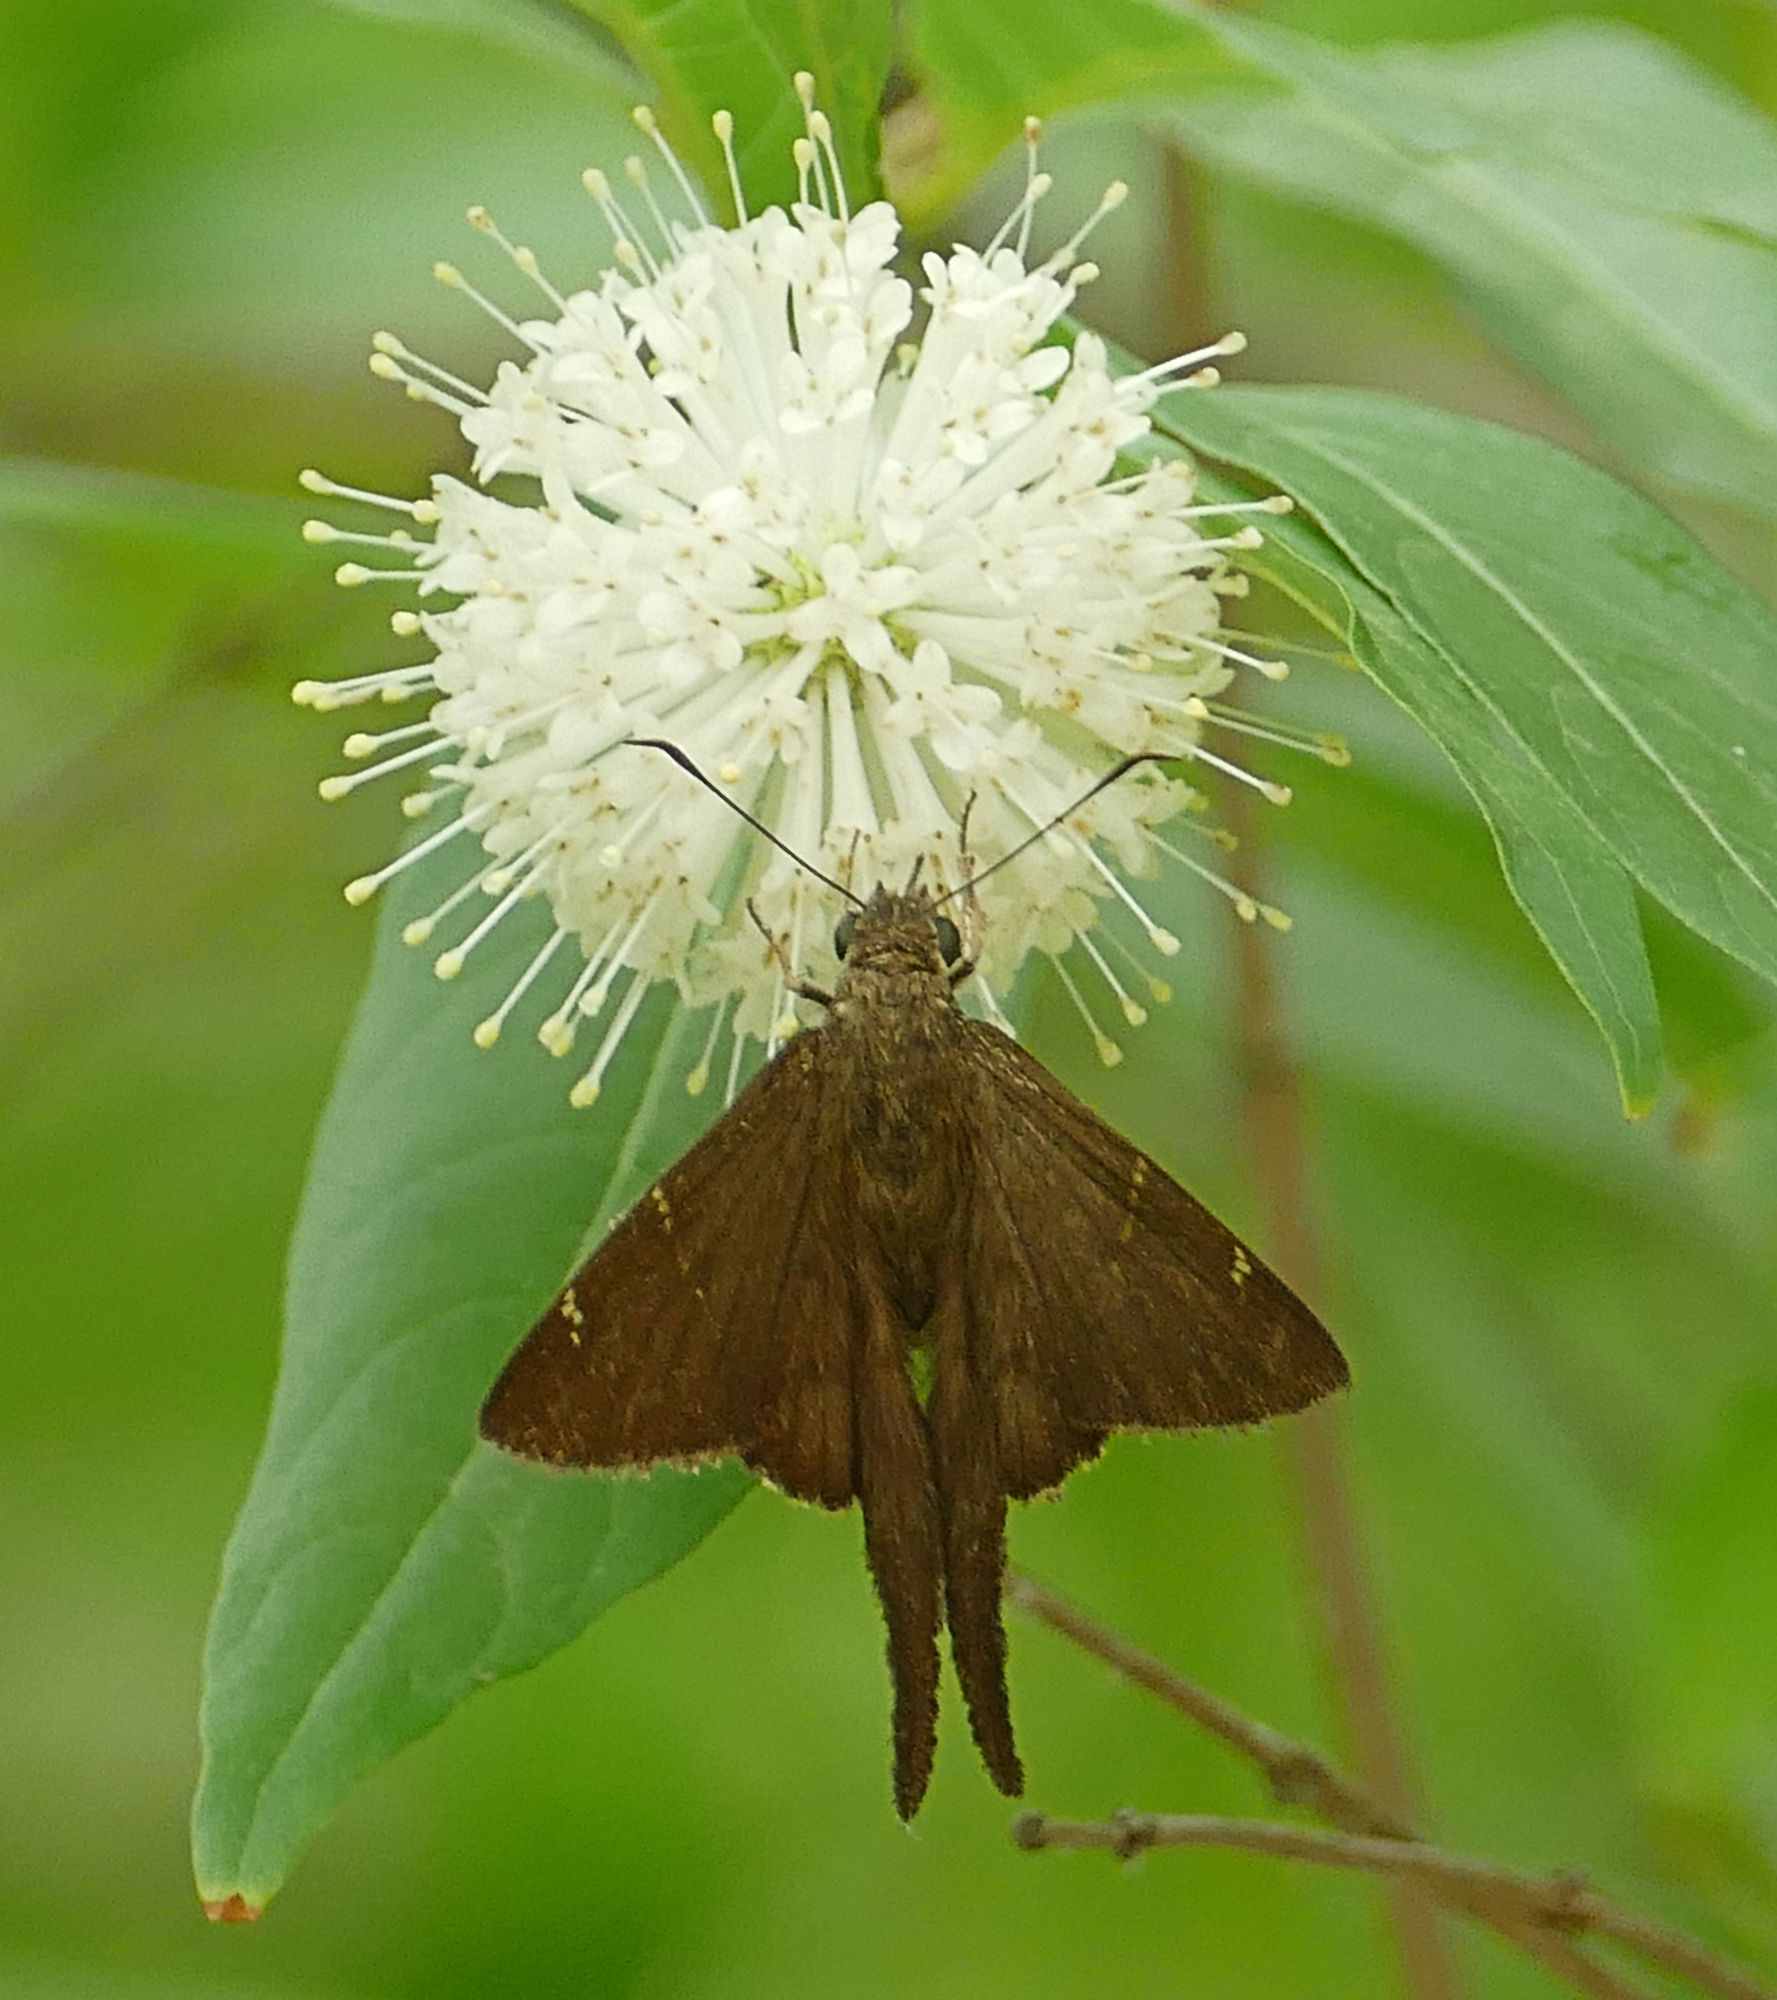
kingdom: Plantae
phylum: Tracheophyta
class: Magnoliopsida
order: Gentianales
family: Rubiaceae
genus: Cephalanthus
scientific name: Cephalanthus occidentalis
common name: Button-willow
